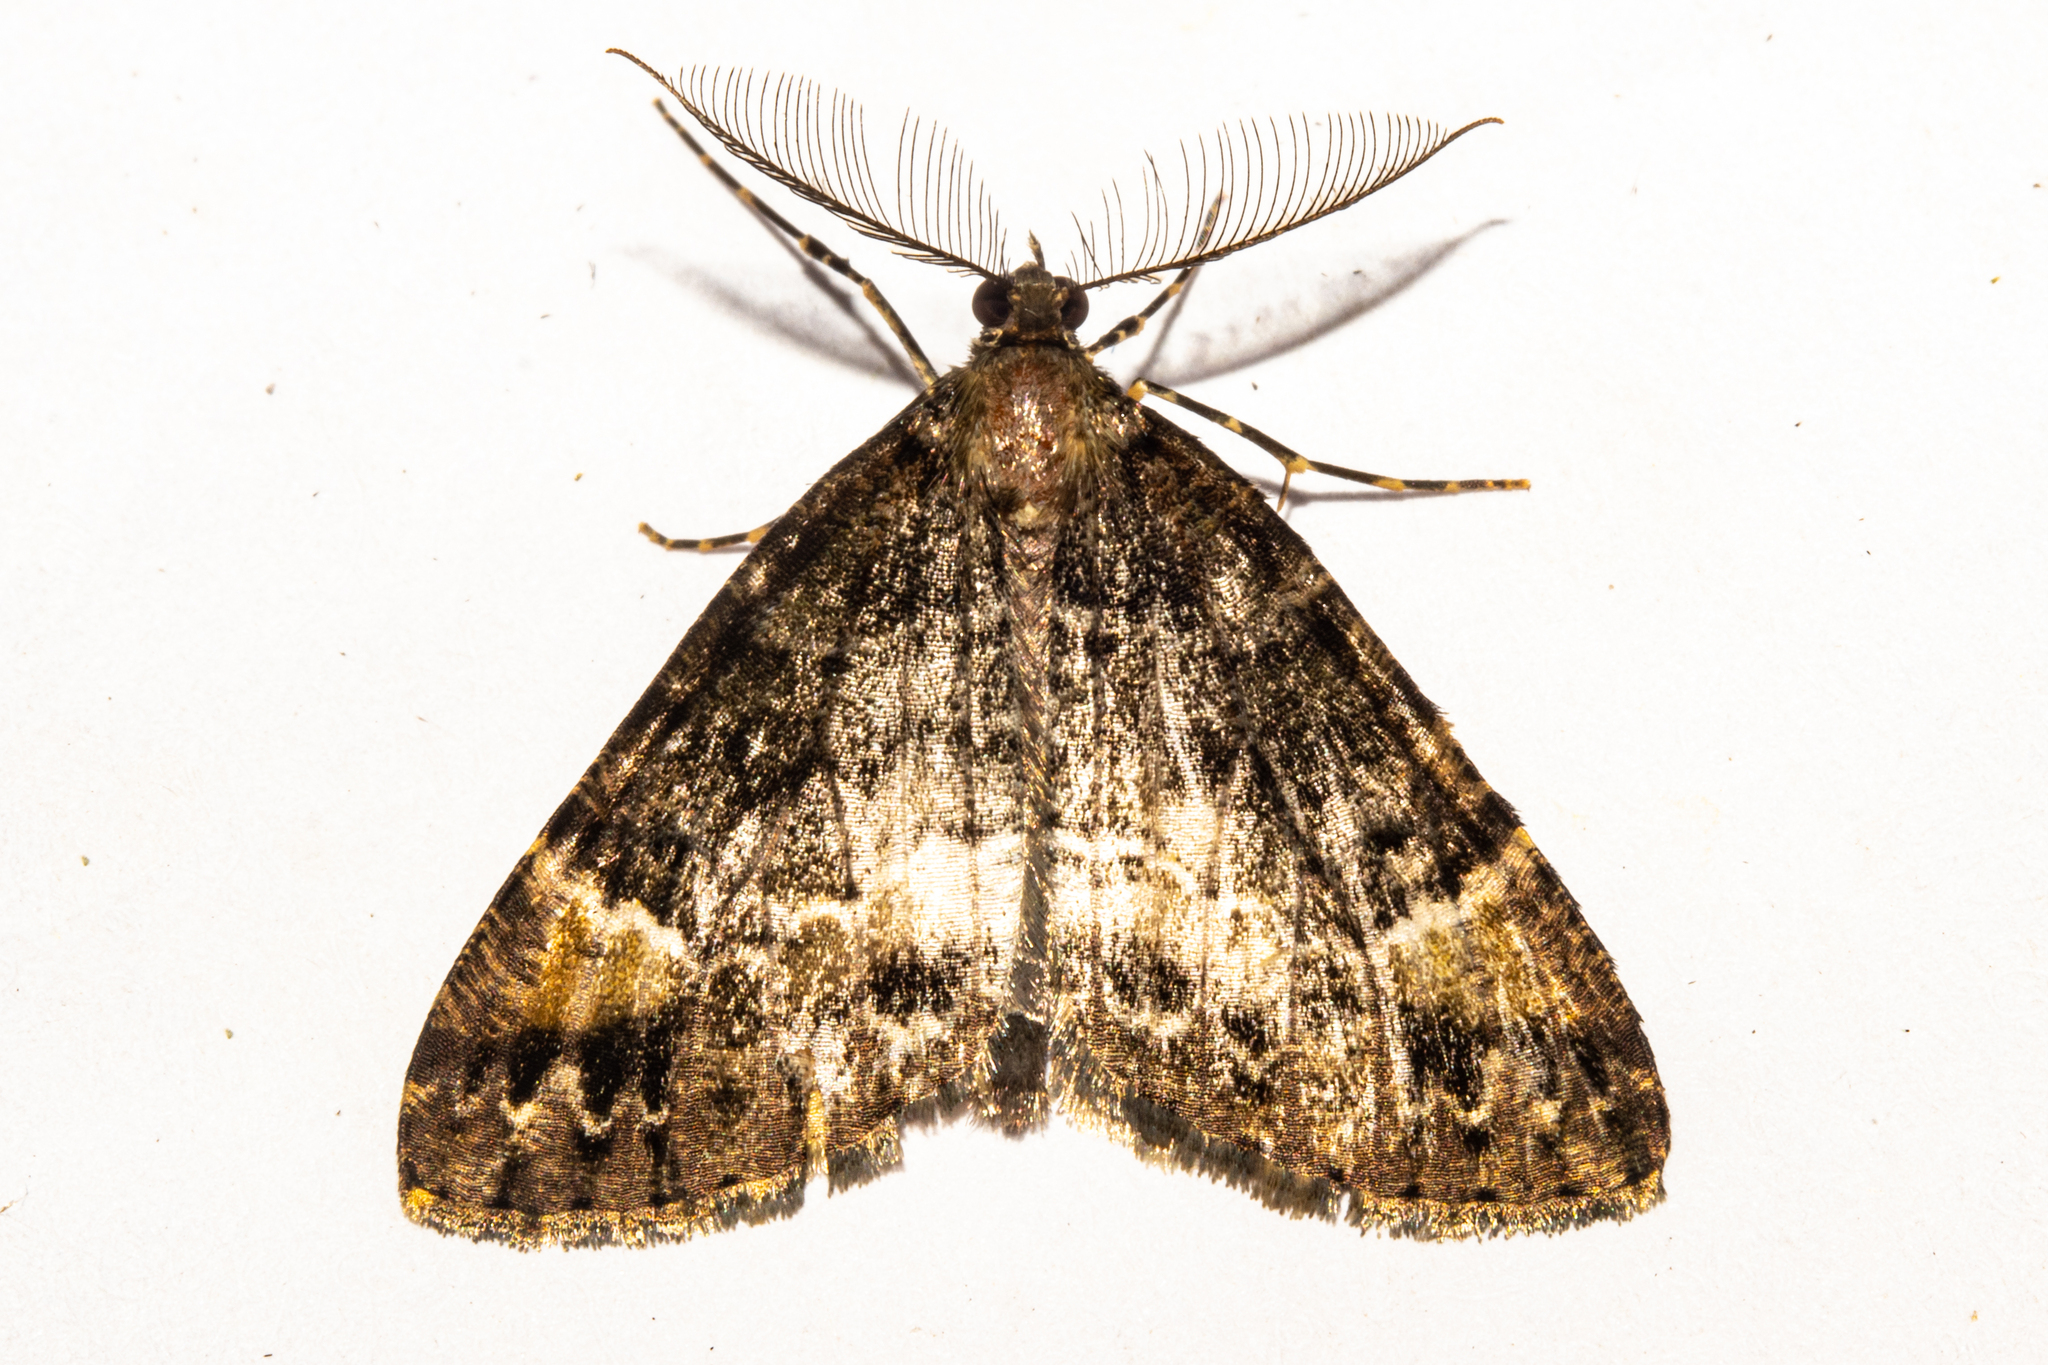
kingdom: Animalia
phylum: Arthropoda
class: Insecta
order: Lepidoptera
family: Geometridae
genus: Pseudocoremia
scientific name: Pseudocoremia productata
